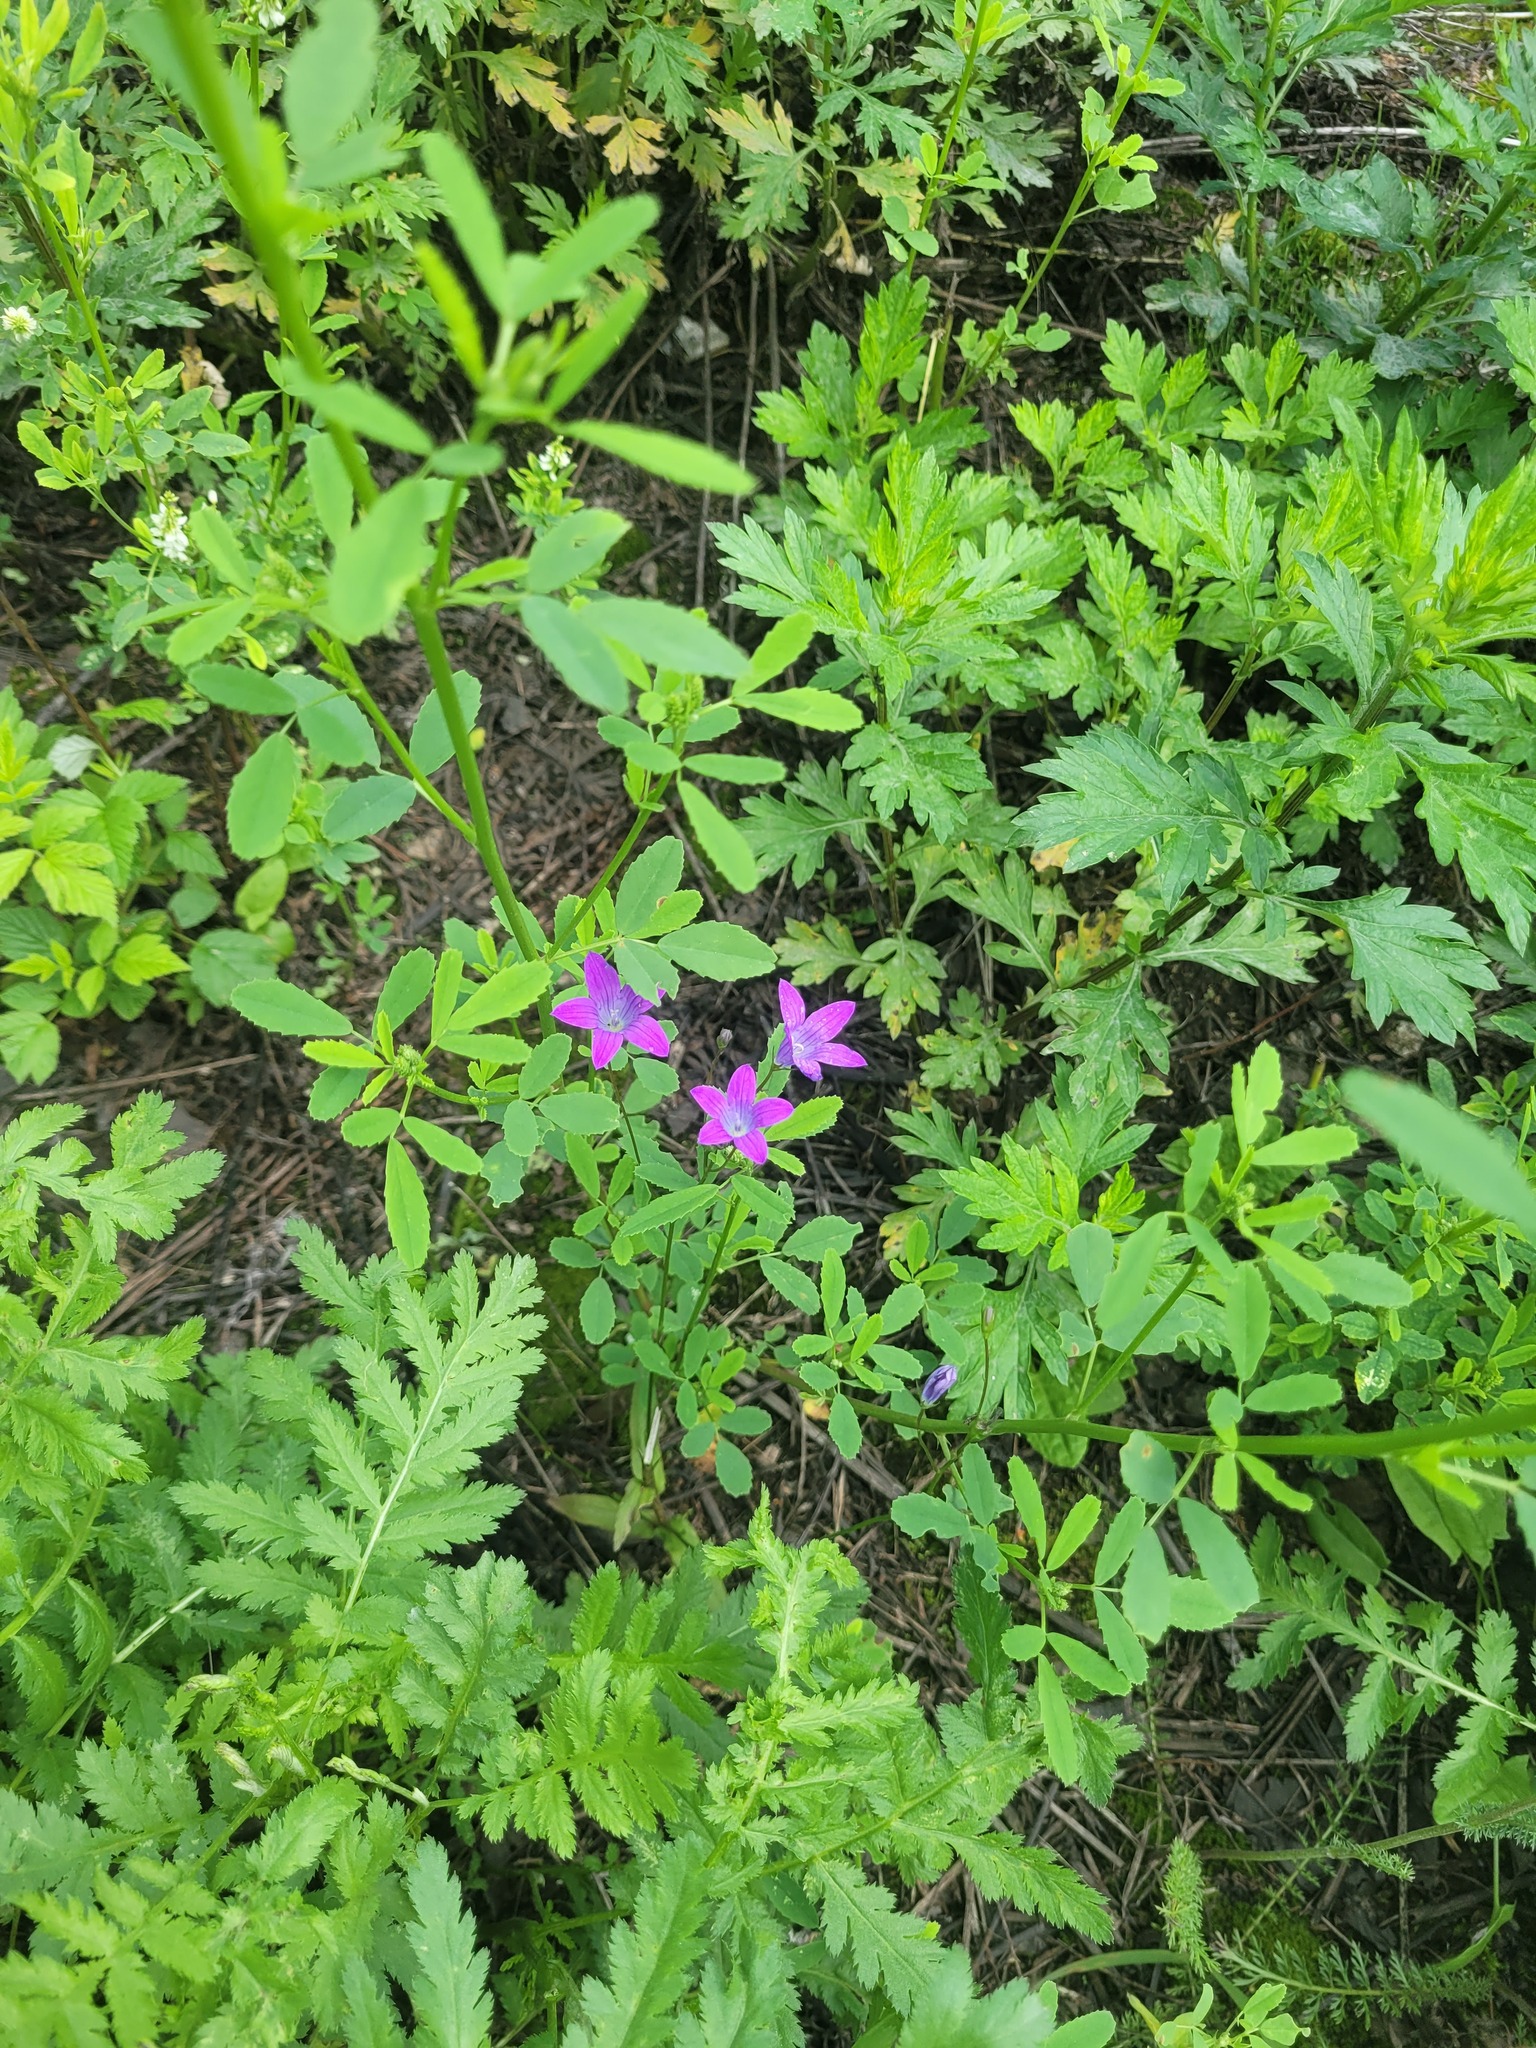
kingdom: Plantae
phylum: Tracheophyta
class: Magnoliopsida
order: Asterales
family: Campanulaceae
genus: Campanula
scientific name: Campanula patula
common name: Spreading bellflower
